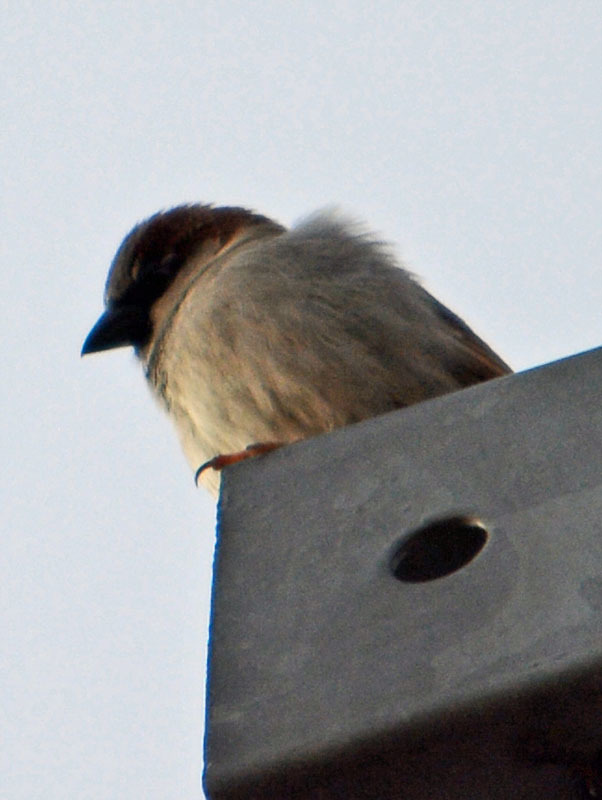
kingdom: Animalia
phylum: Chordata
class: Aves
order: Passeriformes
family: Passeridae
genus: Passer
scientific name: Passer domesticus
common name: House sparrow
